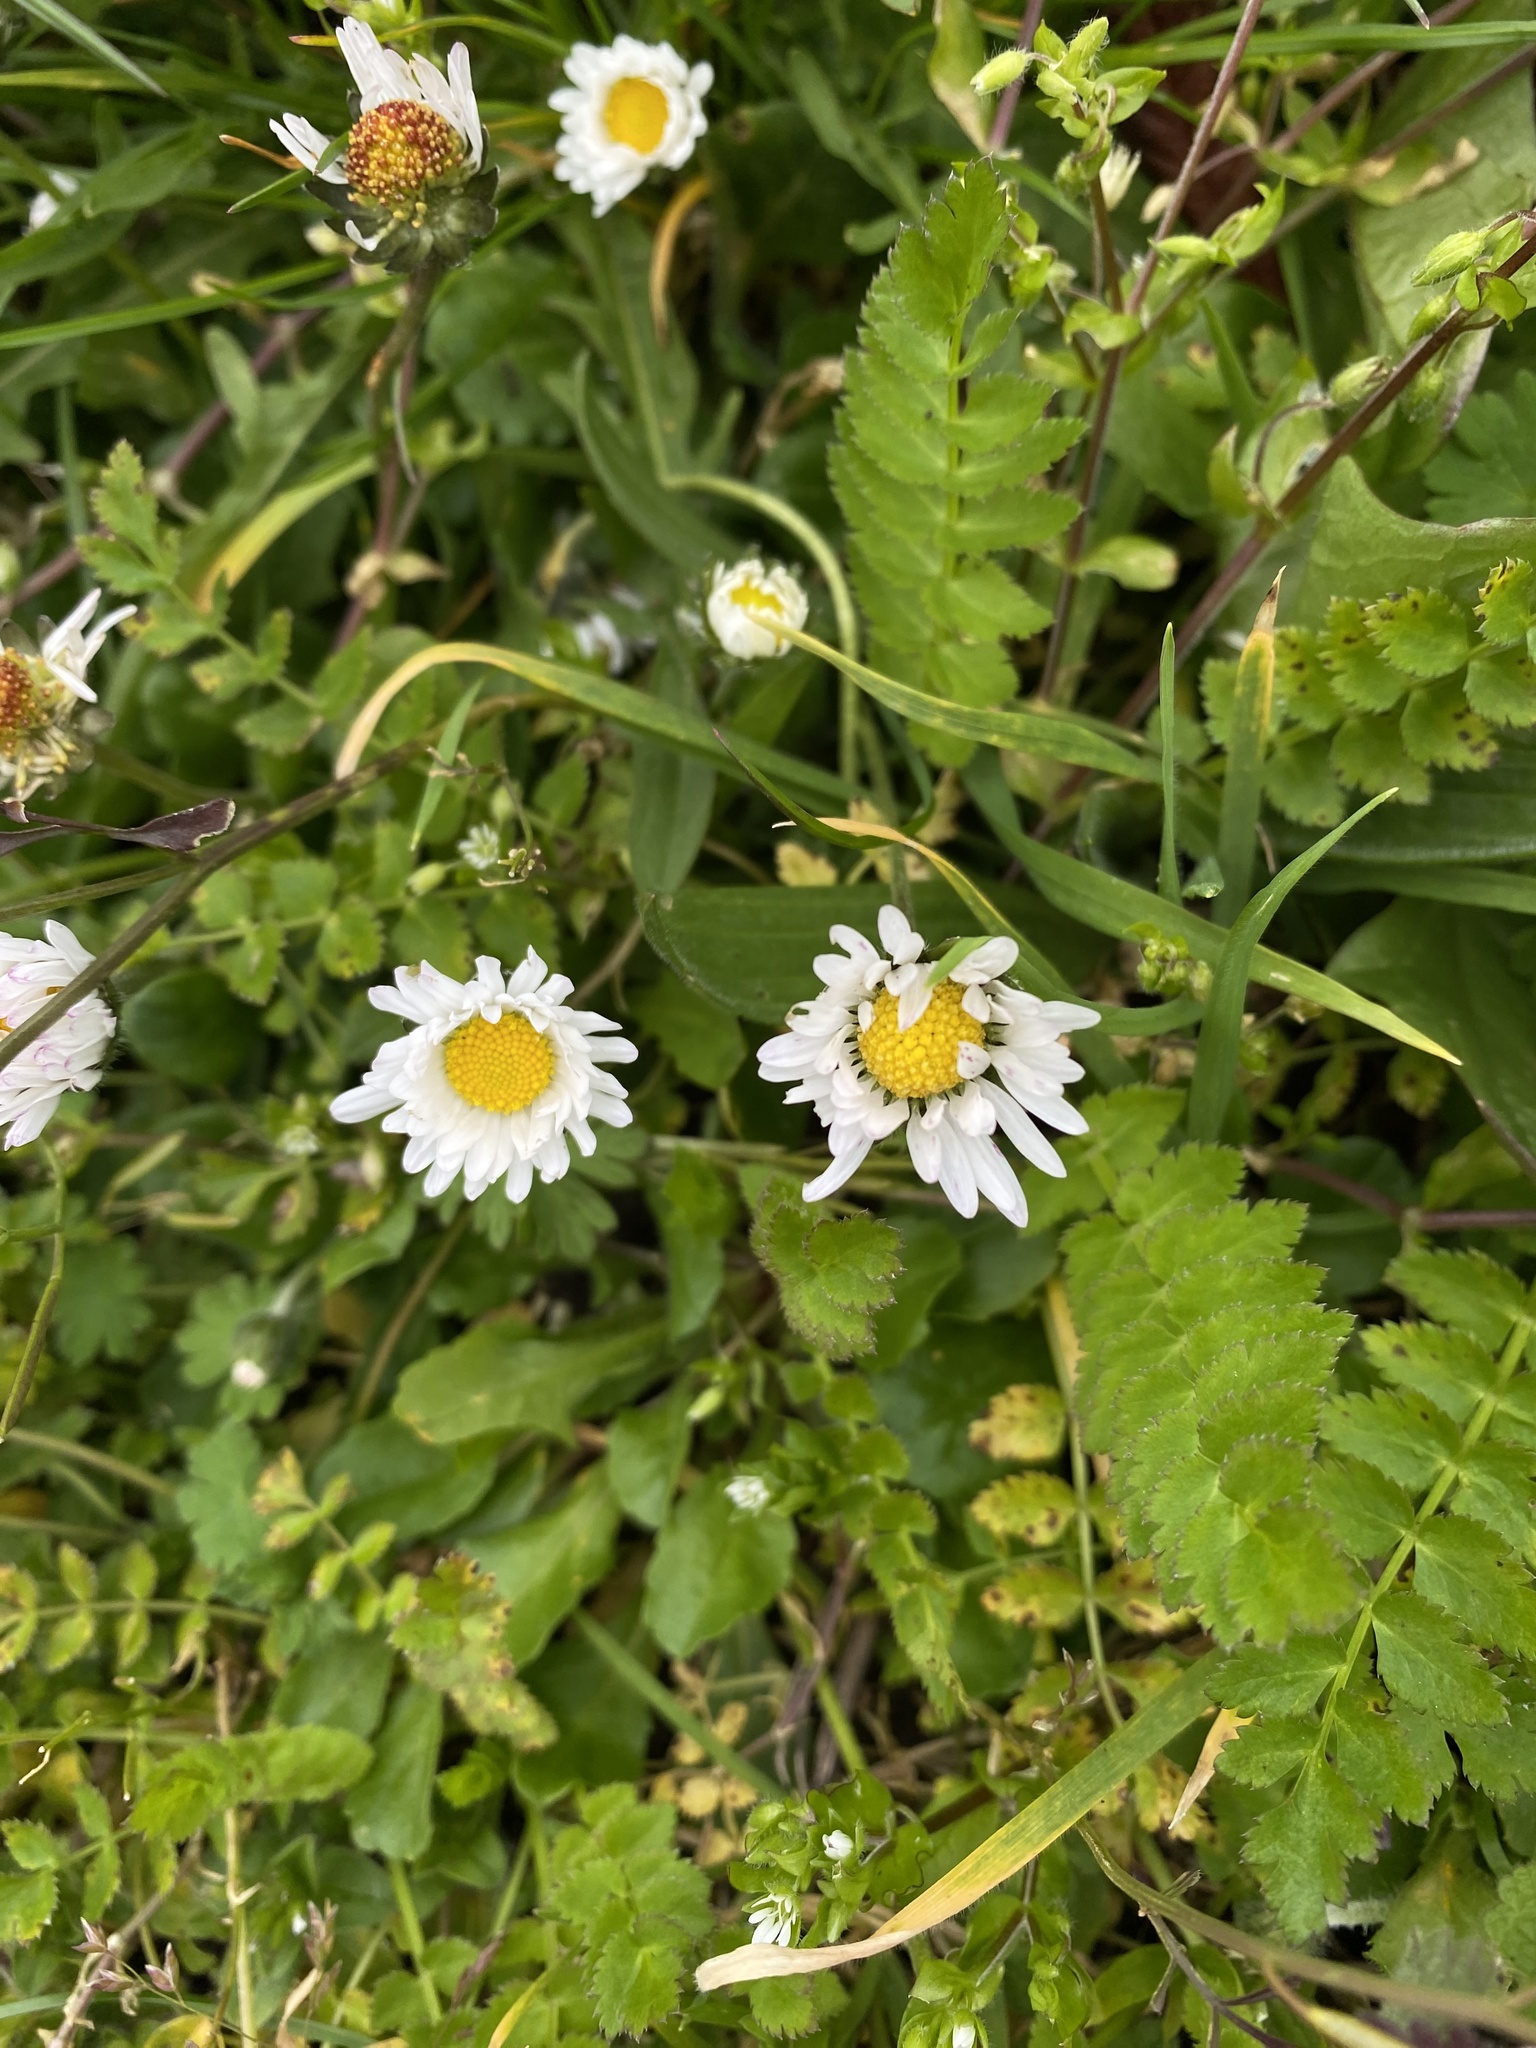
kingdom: Plantae
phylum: Tracheophyta
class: Magnoliopsida
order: Asterales
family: Asteraceae
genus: Bellis
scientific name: Bellis perennis
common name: Lawndaisy
